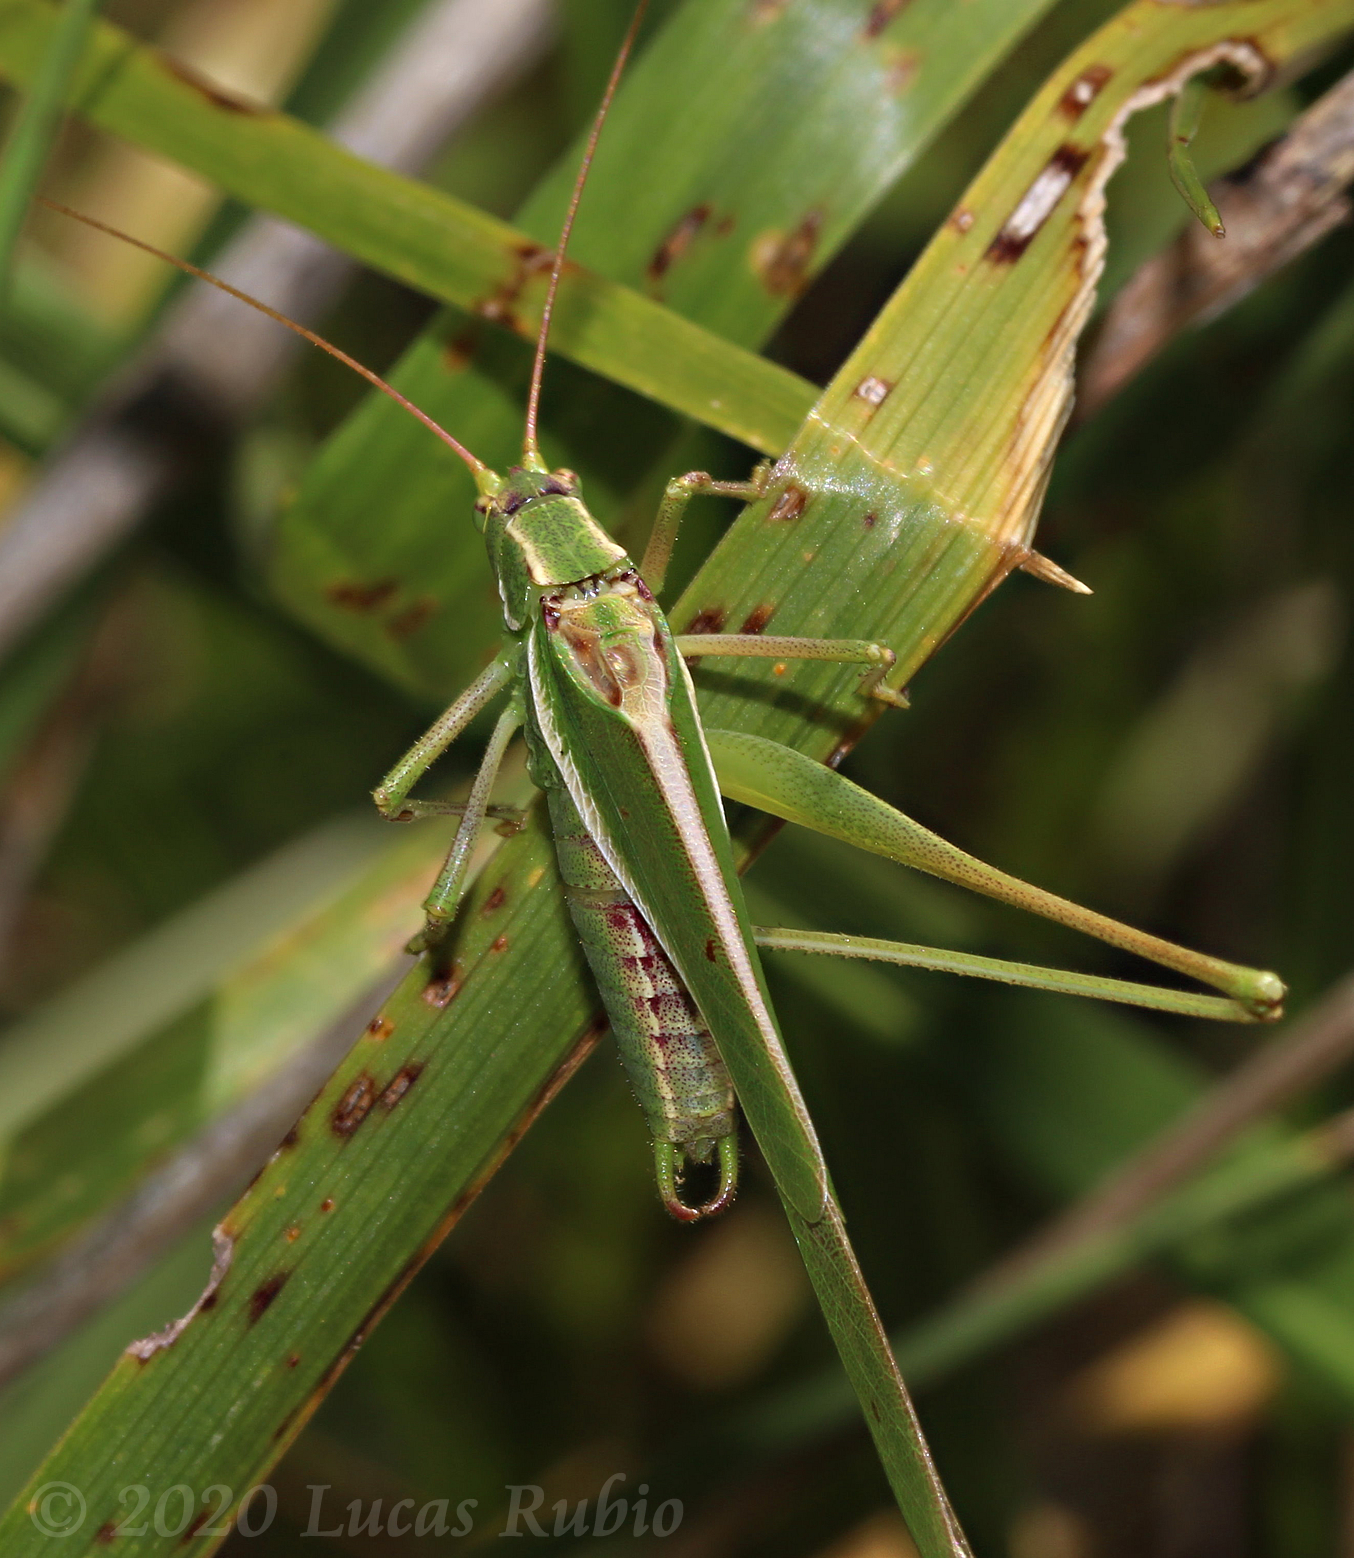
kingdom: Animalia
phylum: Arthropoda
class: Insecta
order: Orthoptera
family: Tettigoniidae
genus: Burgilis
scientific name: Burgilis curta
